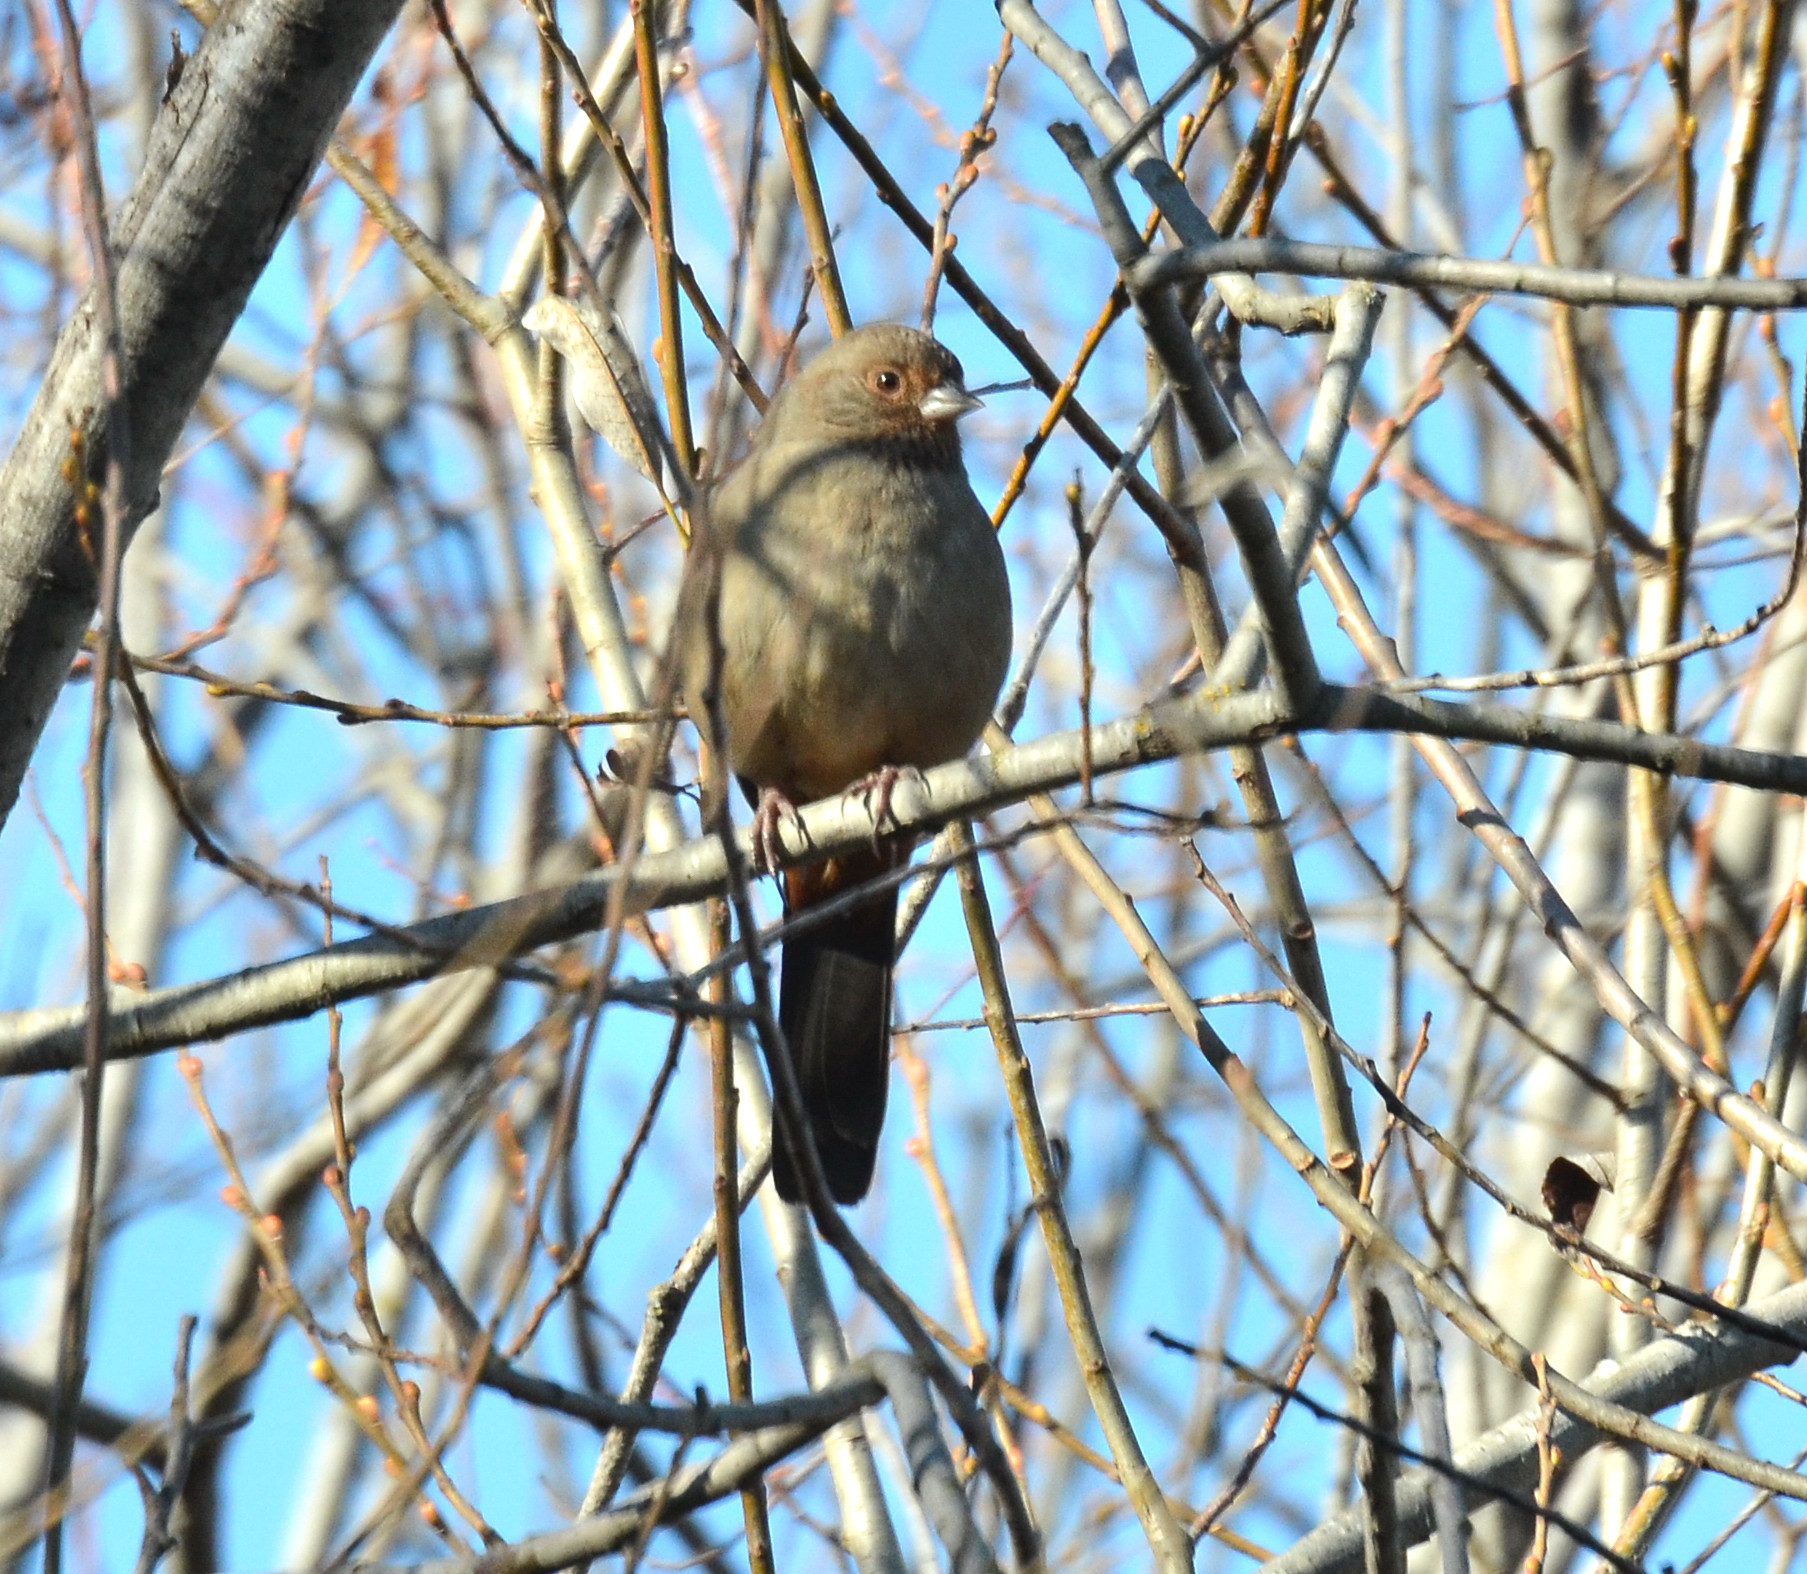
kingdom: Animalia
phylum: Chordata
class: Aves
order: Passeriformes
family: Passerellidae
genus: Melozone
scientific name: Melozone crissalis
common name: California towhee
